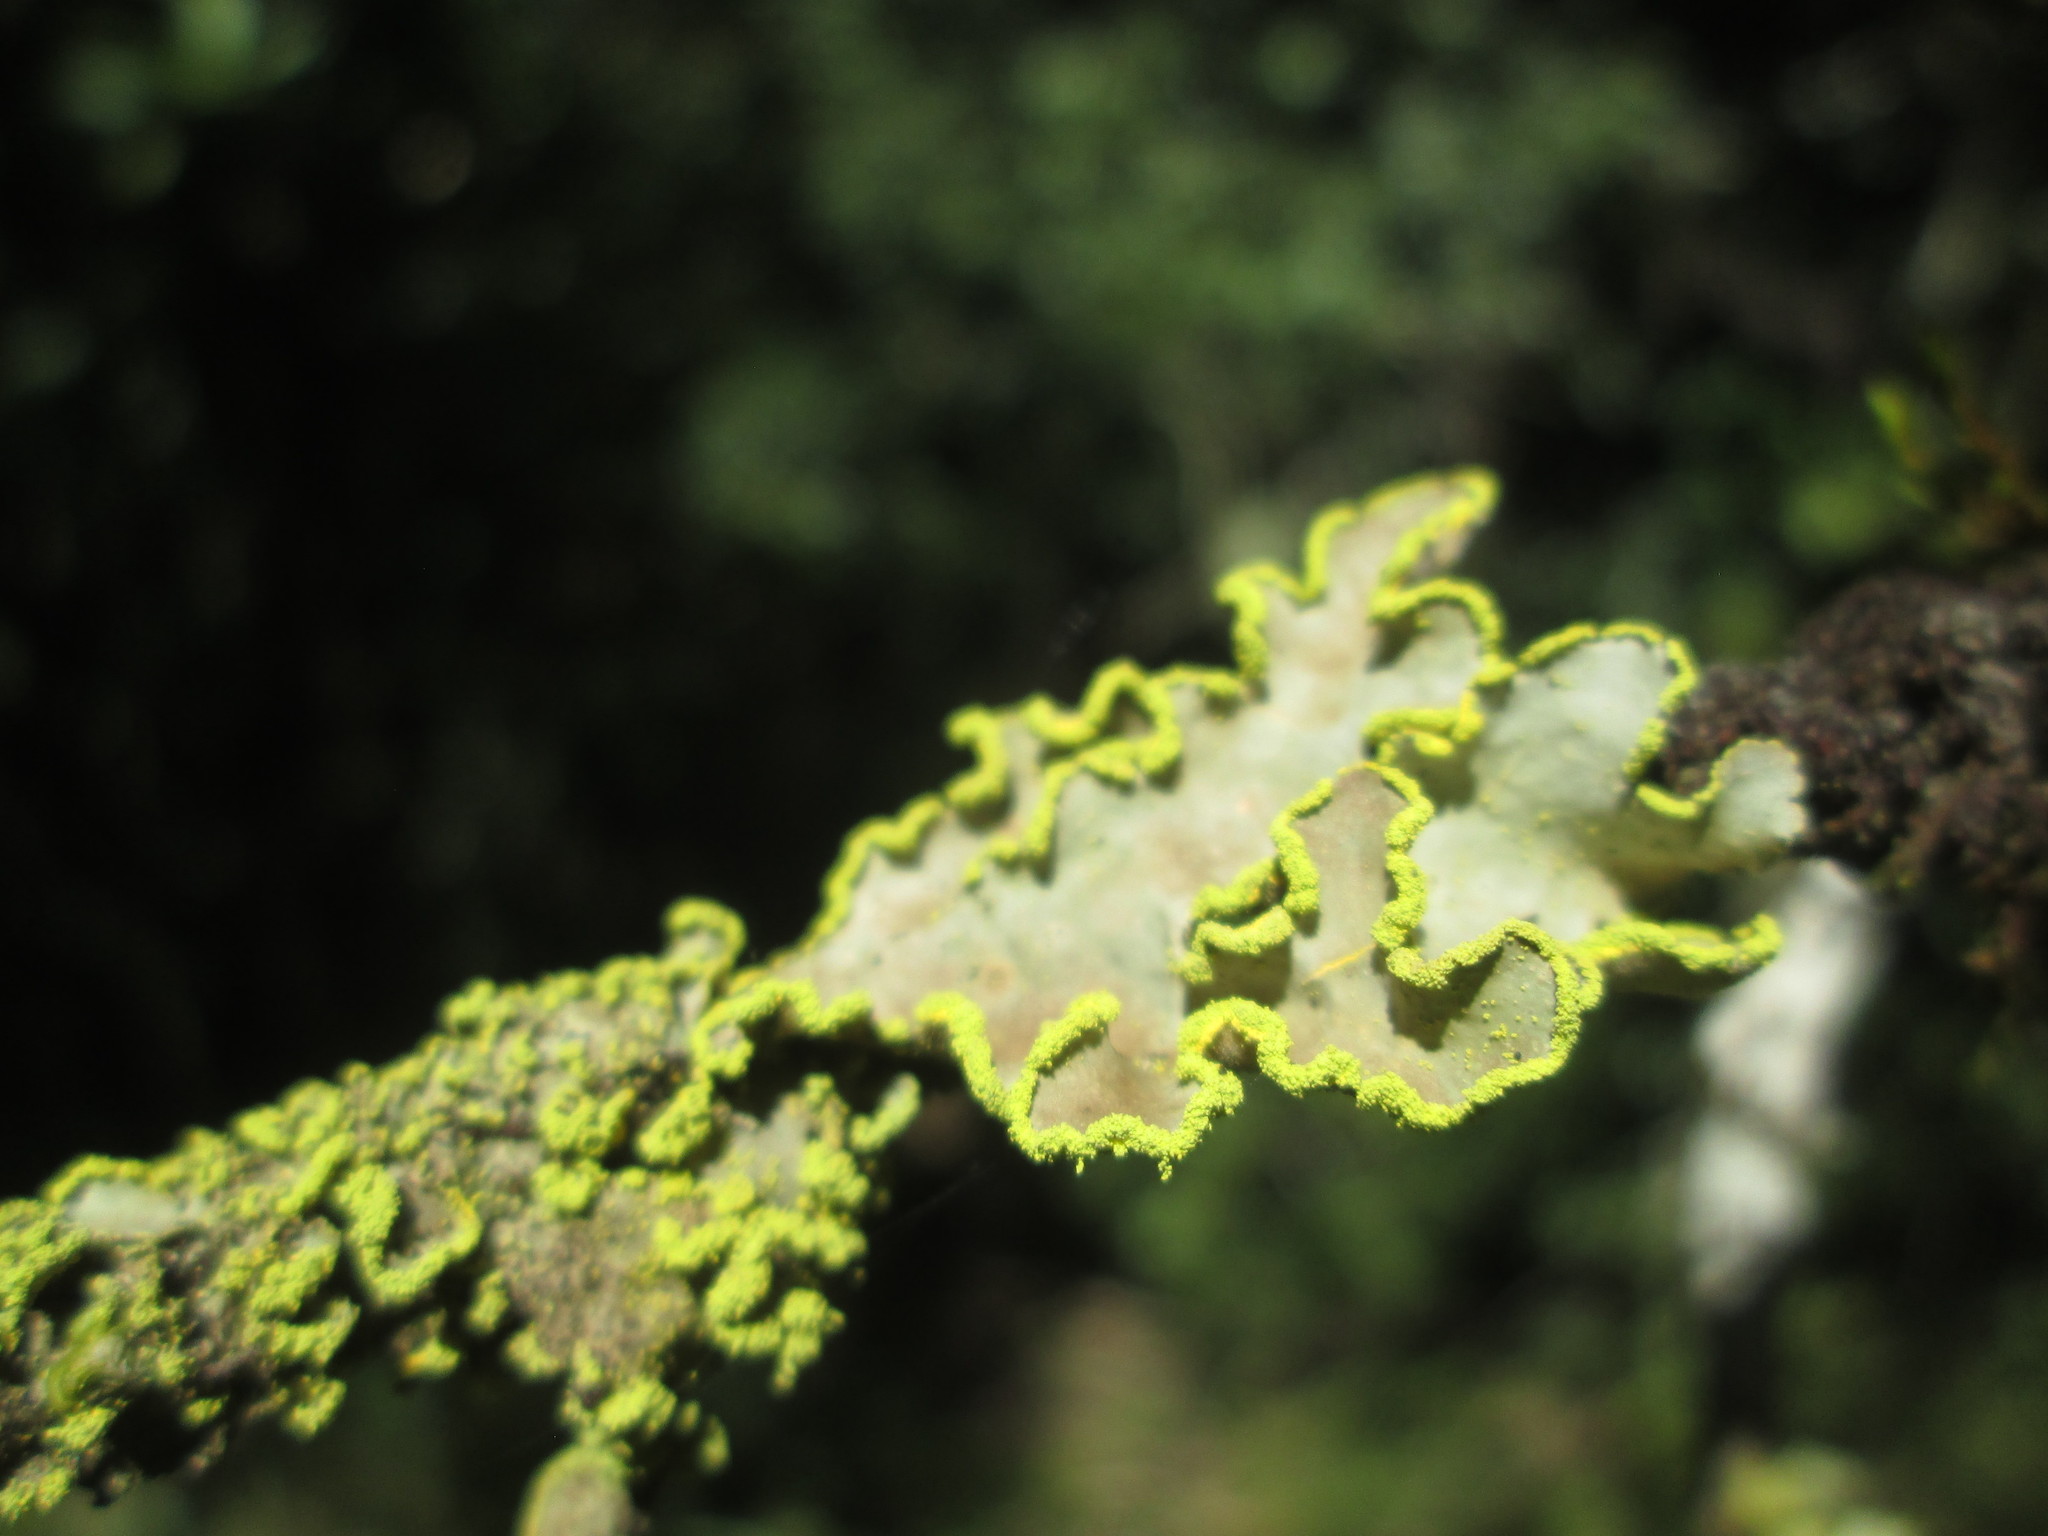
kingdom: Fungi
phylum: Ascomycota
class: Lecanoromycetes
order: Peltigerales
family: Lobariaceae
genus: Pseudocyphellaria
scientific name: Pseudocyphellaria aurata
